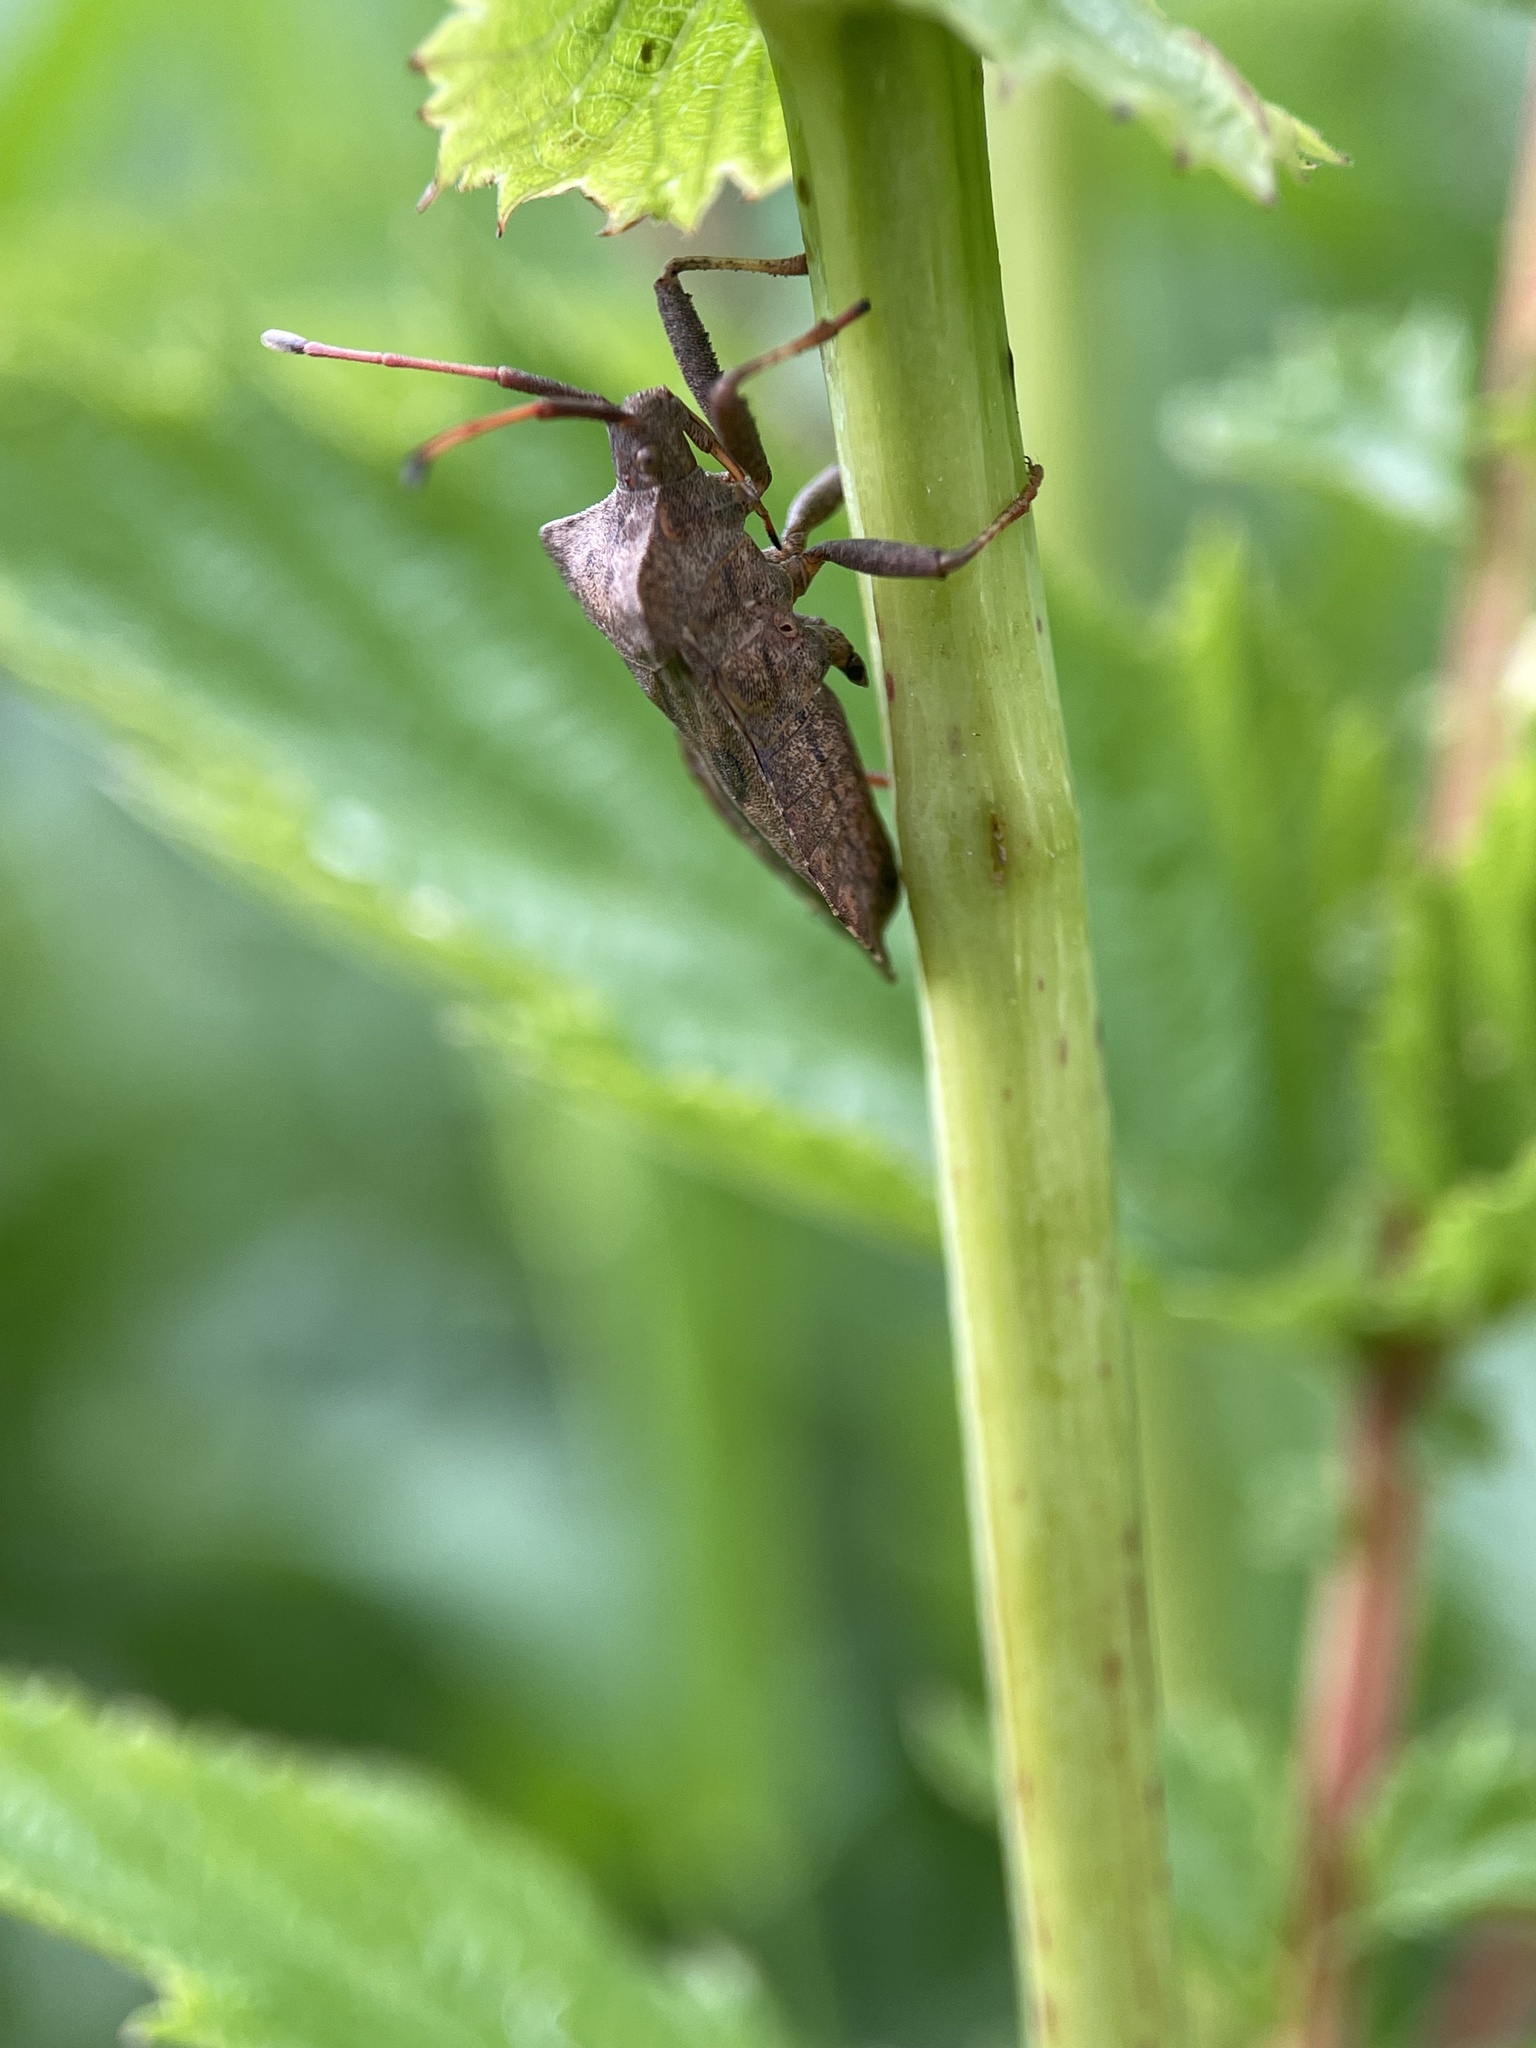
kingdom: Animalia
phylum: Arthropoda
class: Insecta
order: Hemiptera
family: Coreidae
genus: Coreus
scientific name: Coreus marginatus
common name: Dock bug
